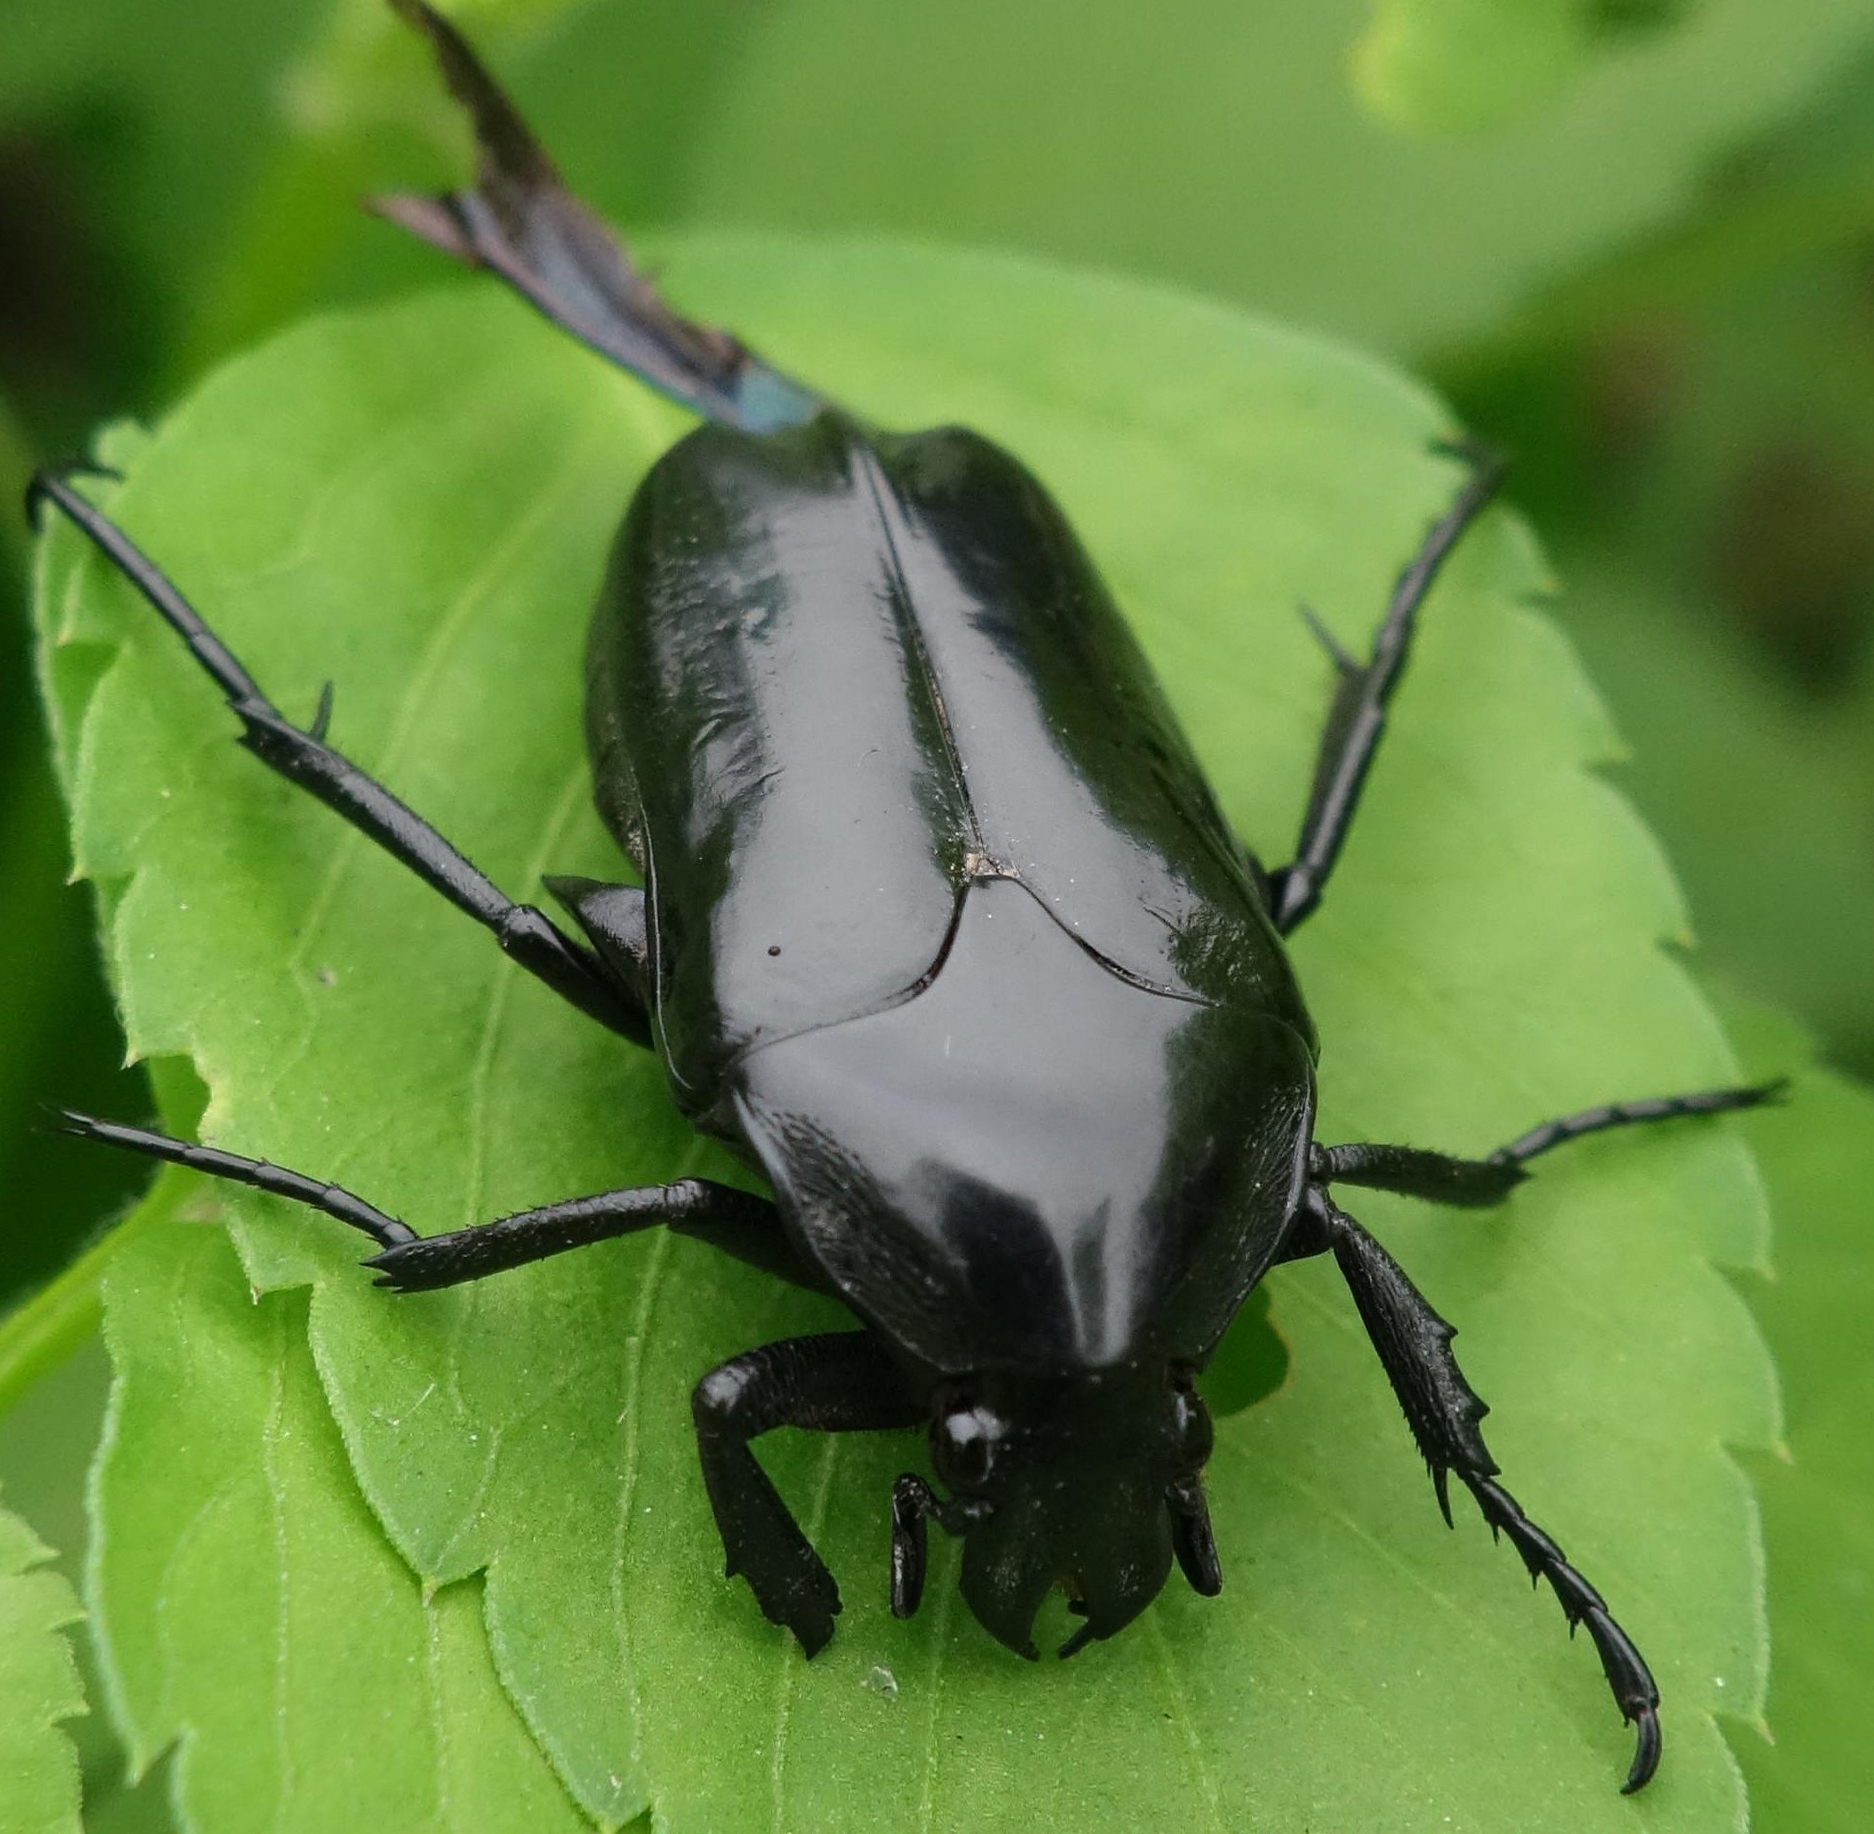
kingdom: Animalia
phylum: Arthropoda
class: Insecta
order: Coleoptera
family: Scarabaeidae
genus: Macronota
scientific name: Macronota shangaicus
